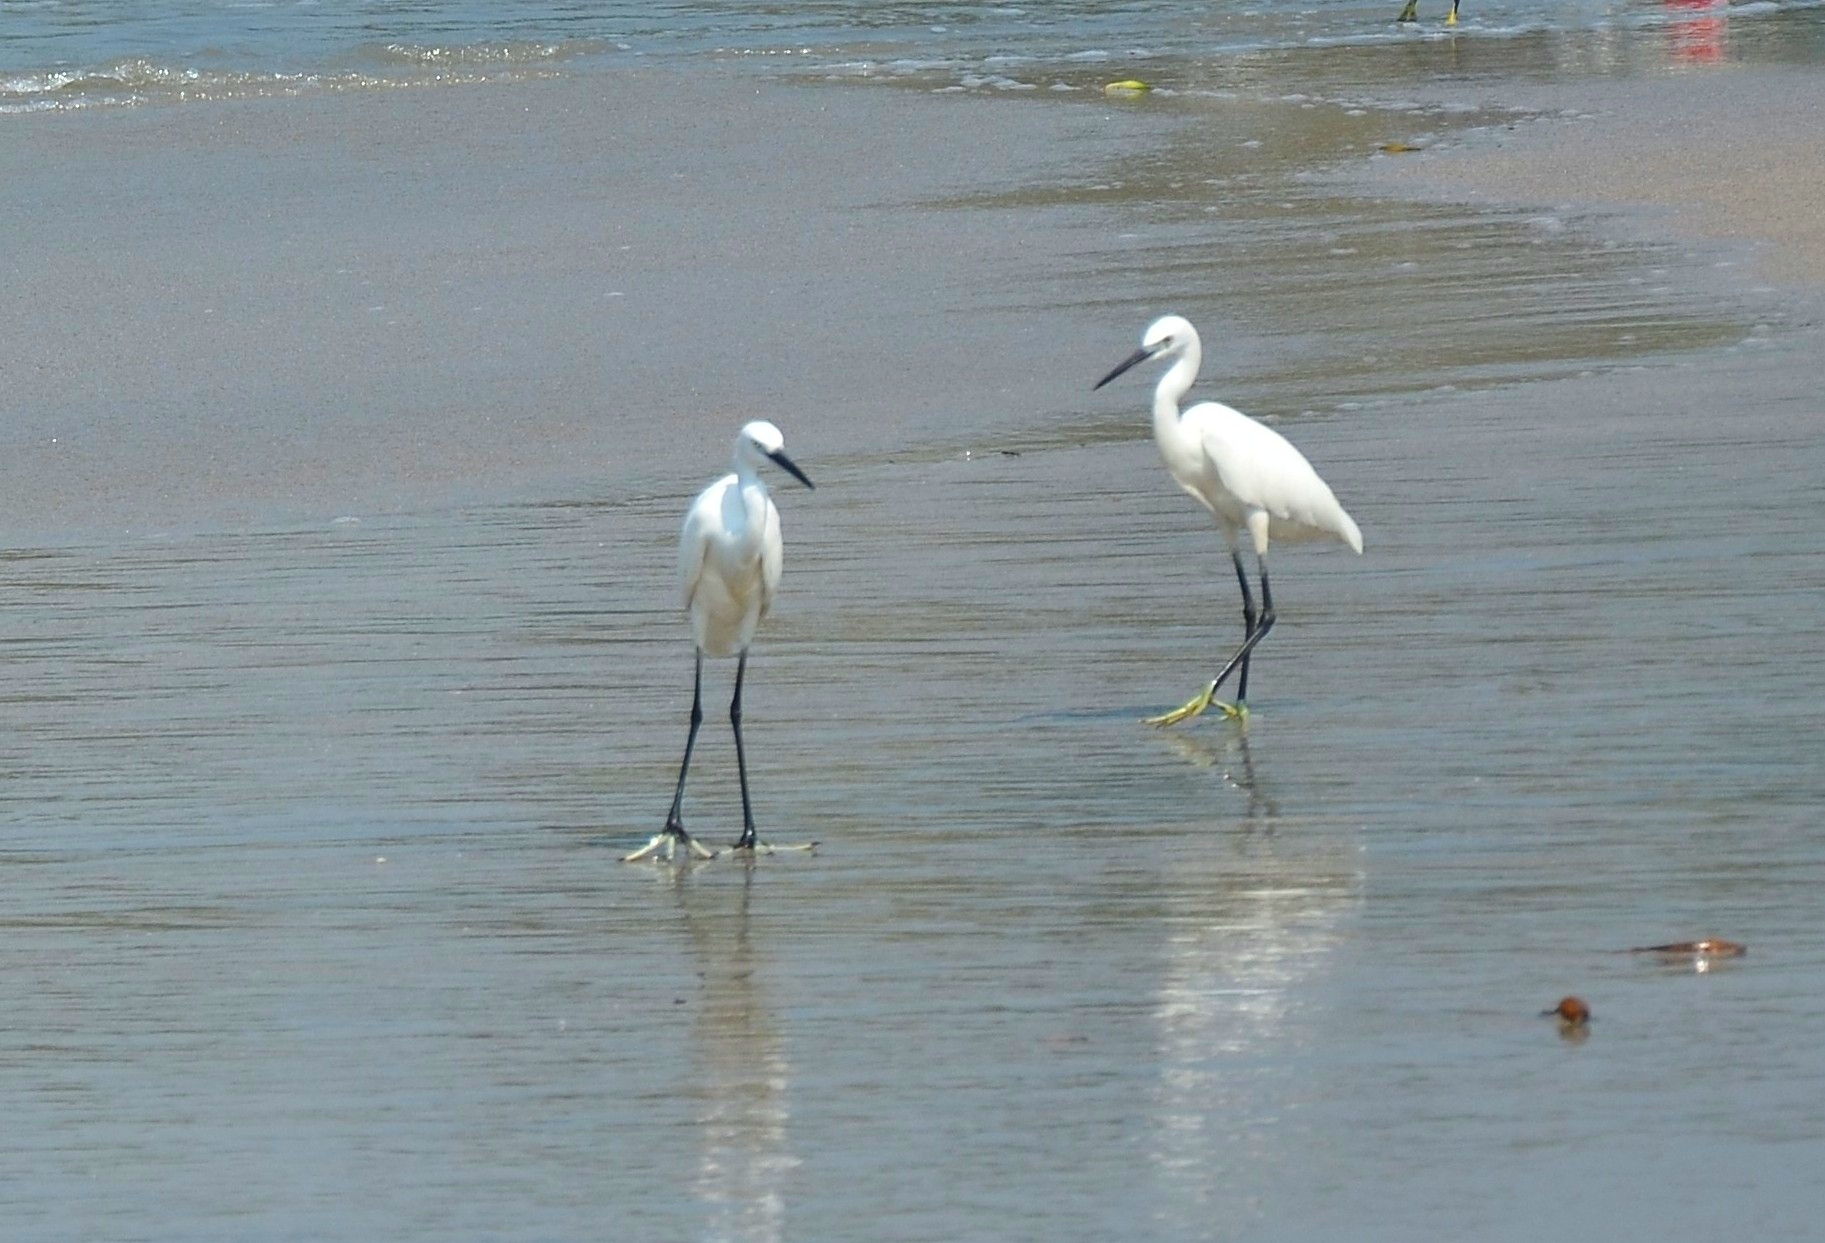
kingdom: Animalia
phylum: Chordata
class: Aves
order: Pelecaniformes
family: Ardeidae
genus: Egretta
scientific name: Egretta garzetta
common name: Little egret
